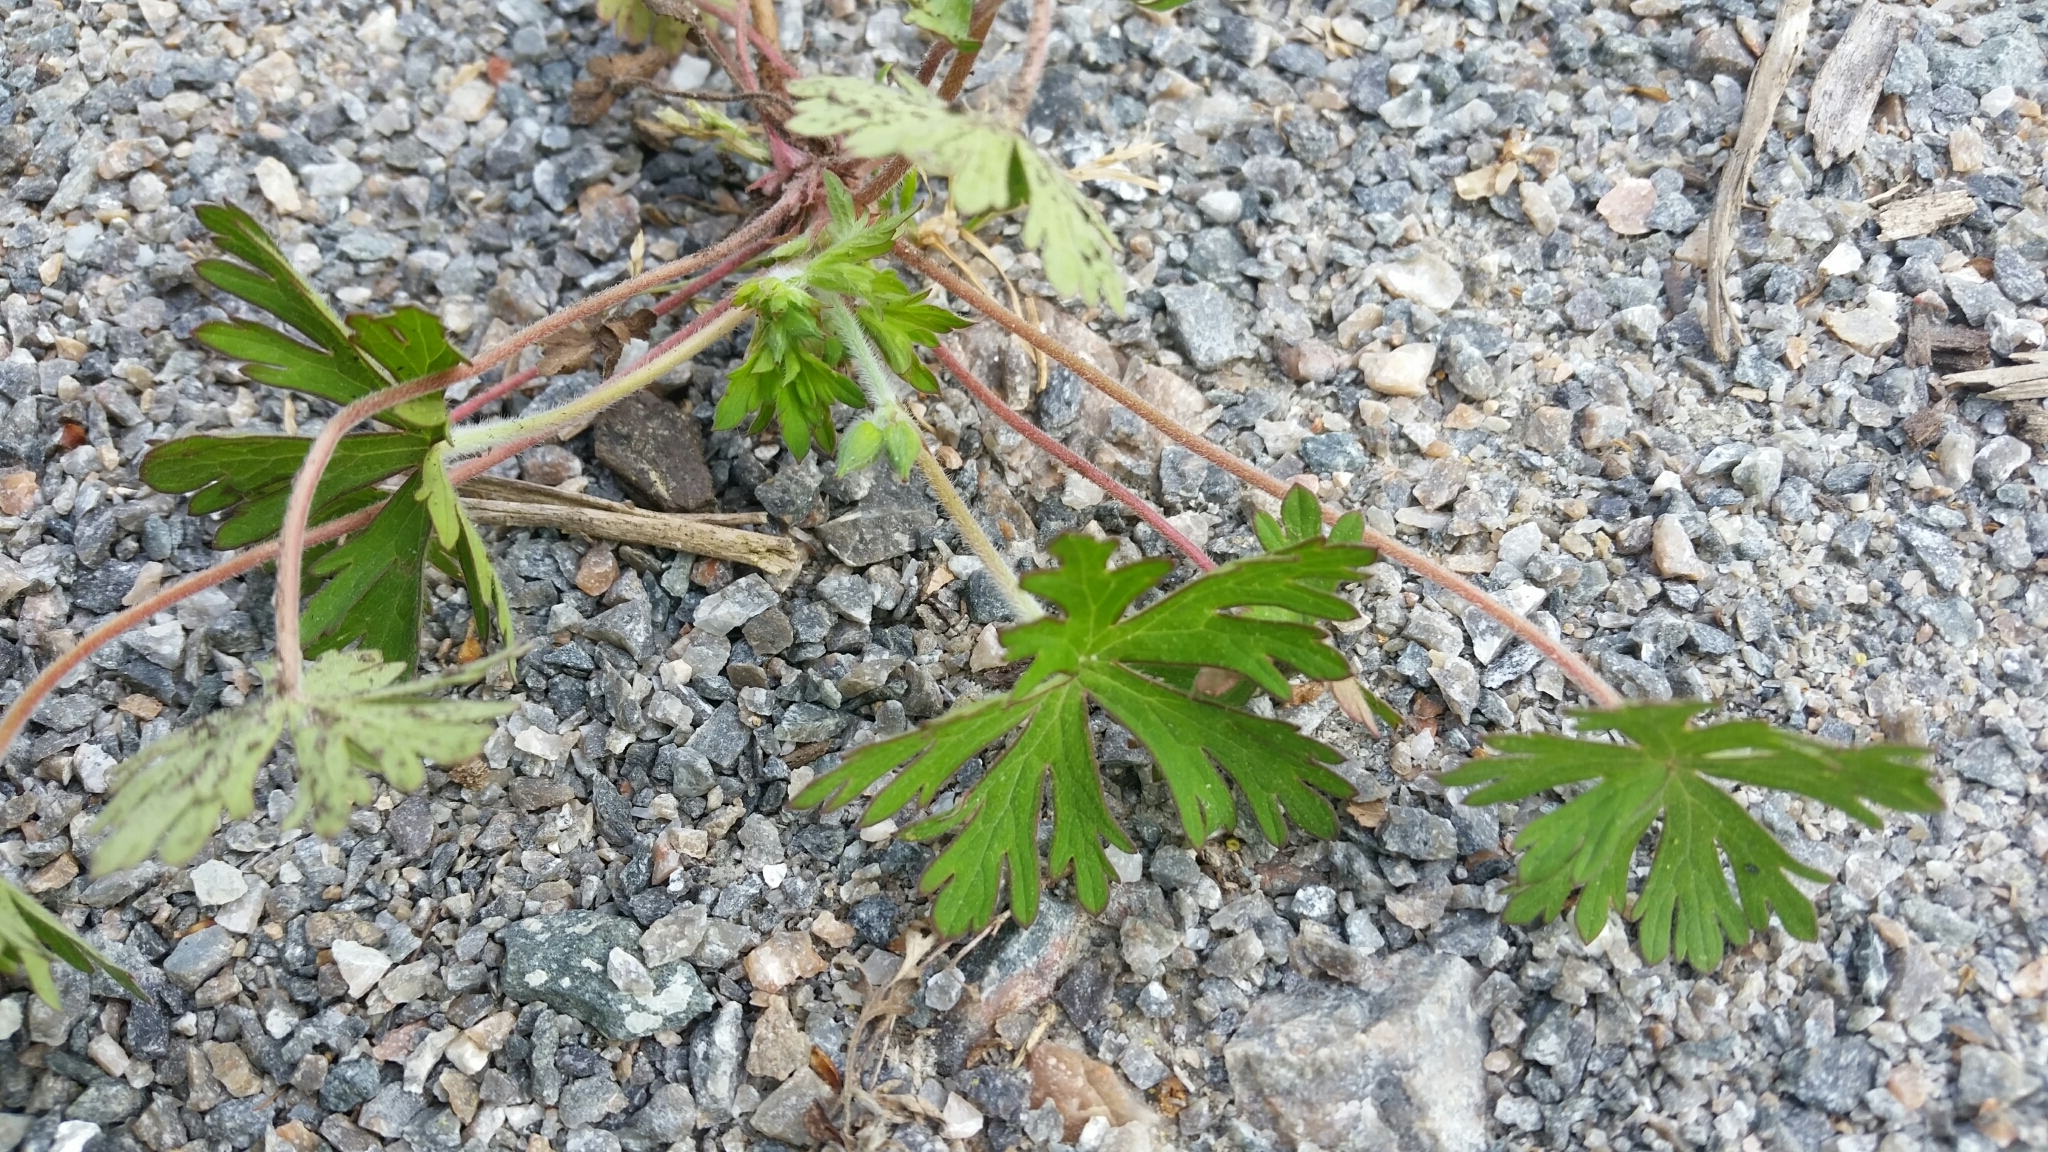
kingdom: Plantae
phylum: Tracheophyta
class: Magnoliopsida
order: Geraniales
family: Geraniaceae
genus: Geranium
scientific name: Geranium carolinianum
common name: Carolina crane's-bill
